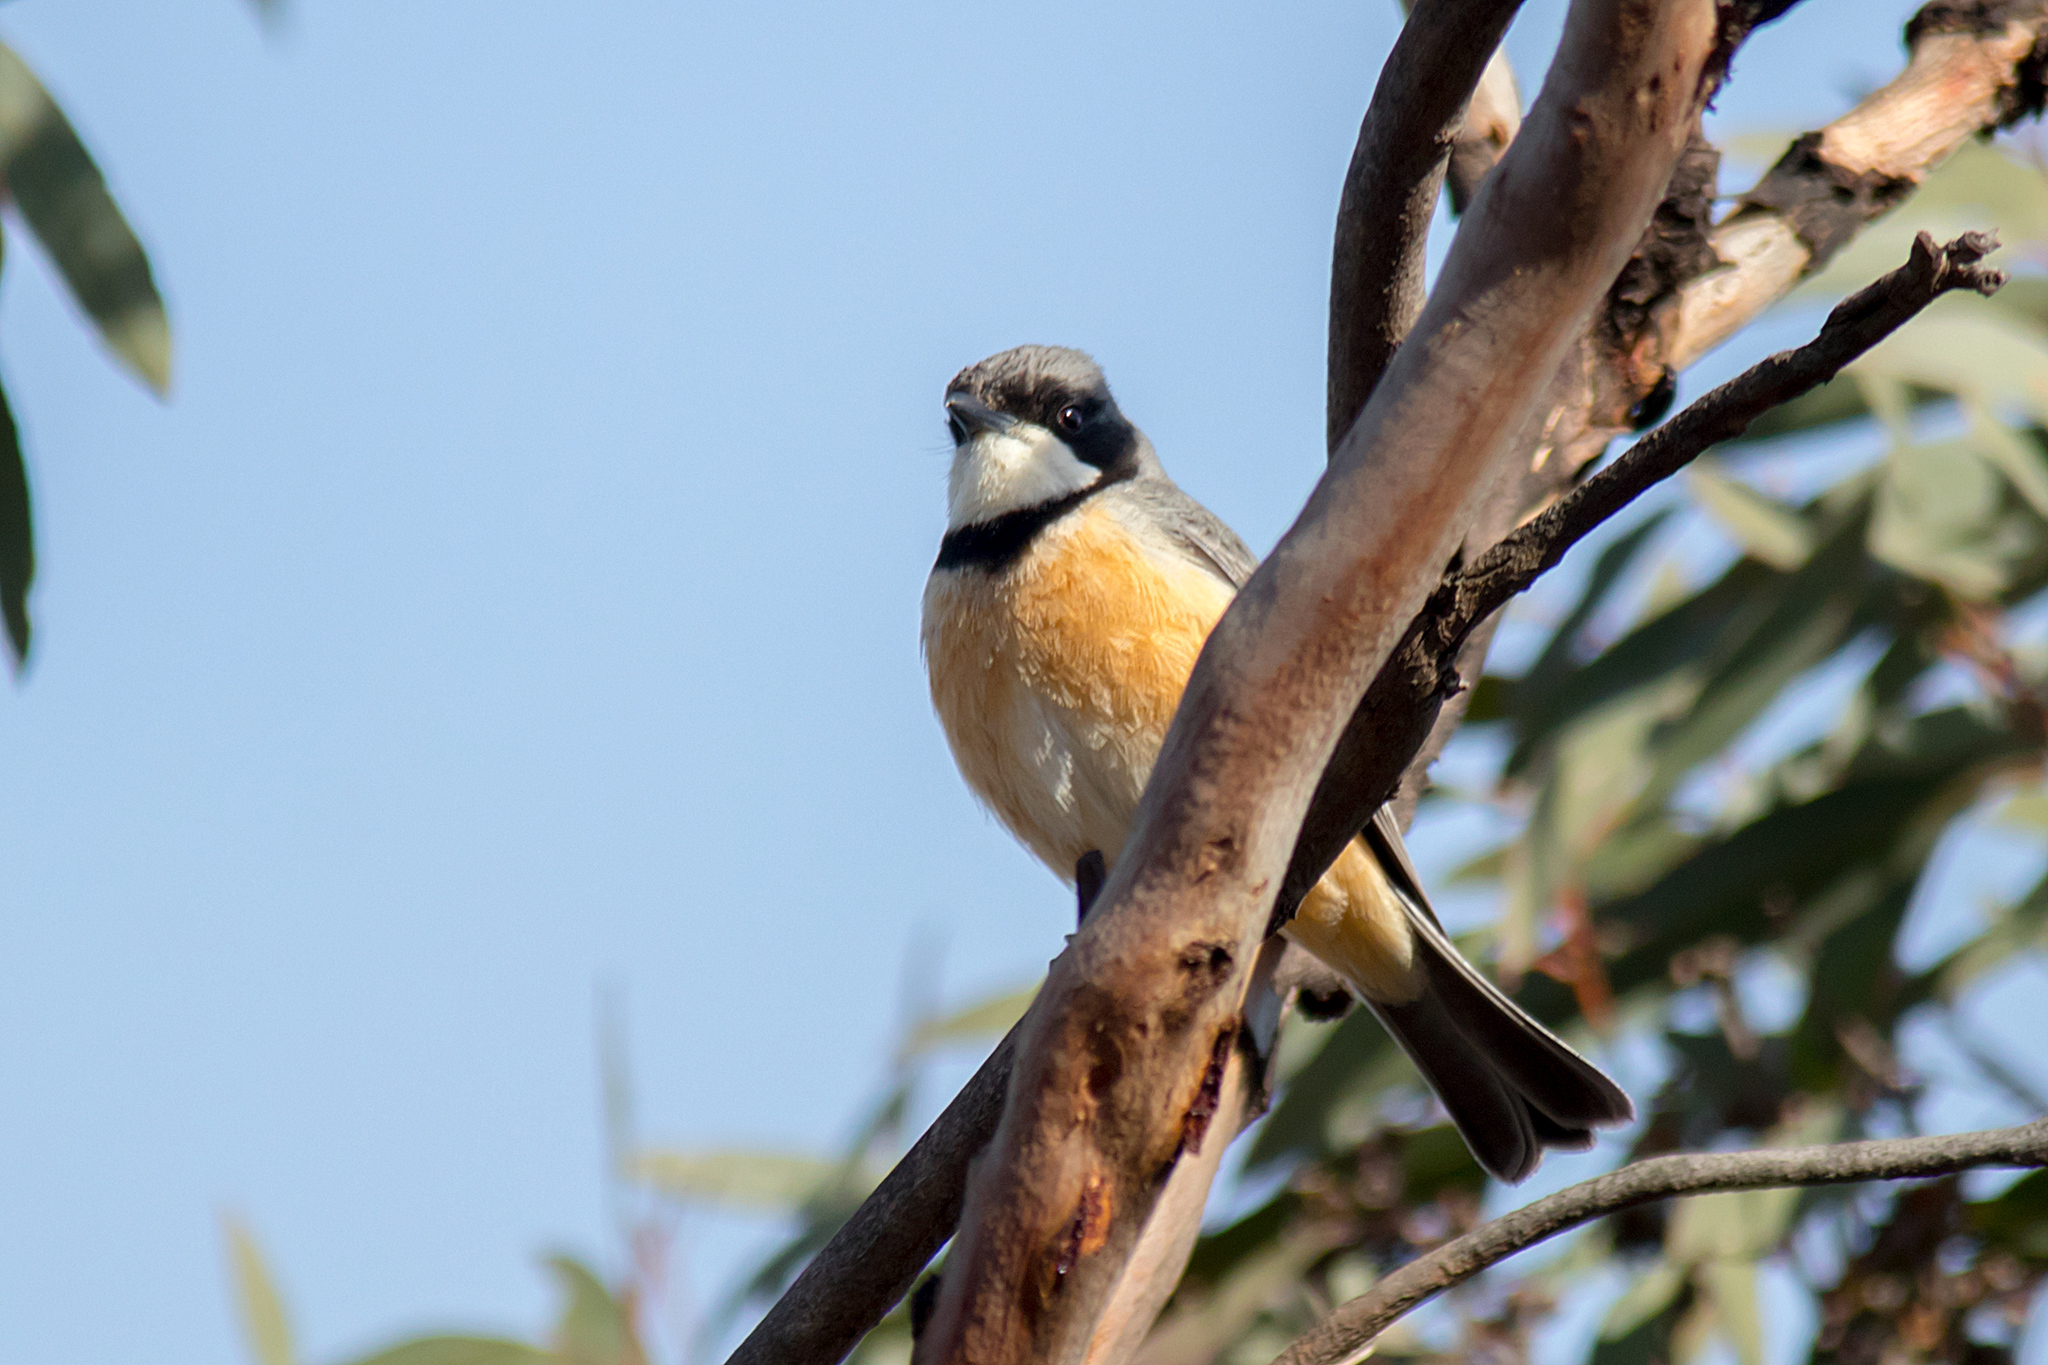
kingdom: Animalia
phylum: Chordata
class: Aves
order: Passeriformes
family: Pachycephalidae
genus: Pachycephala
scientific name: Pachycephala rufiventris
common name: Rufous whistler
